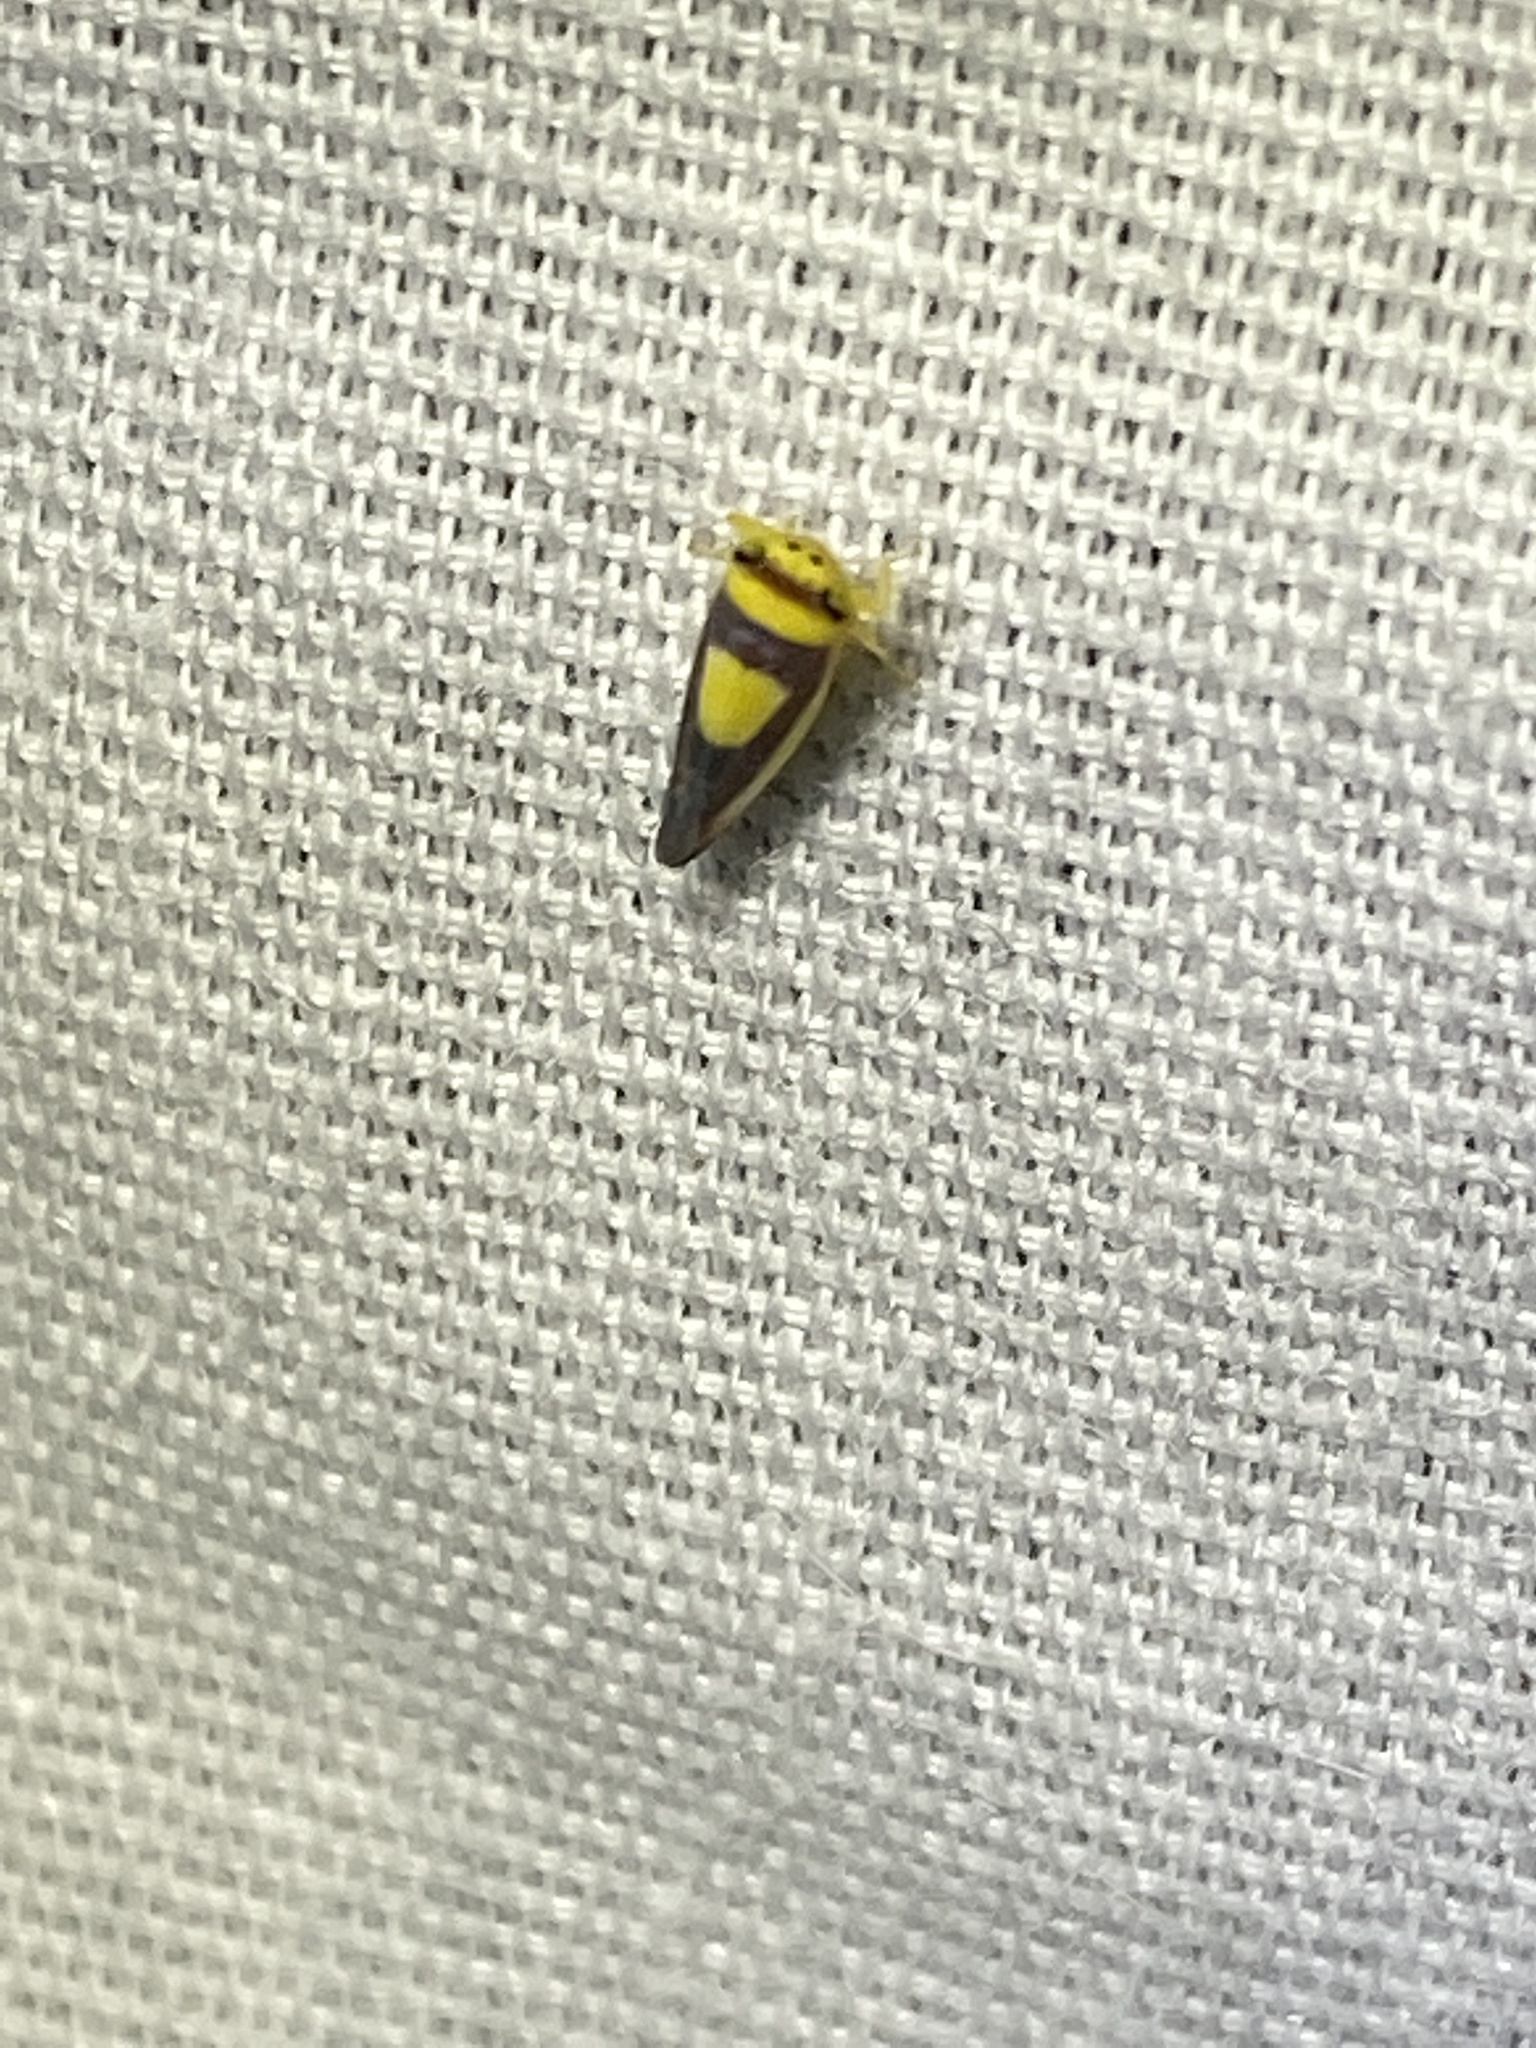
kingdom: Animalia
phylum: Arthropoda
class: Insecta
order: Hemiptera
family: Cicadellidae
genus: Colladonus
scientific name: Colladonus clitellarius
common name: The saddleback leafhopper
